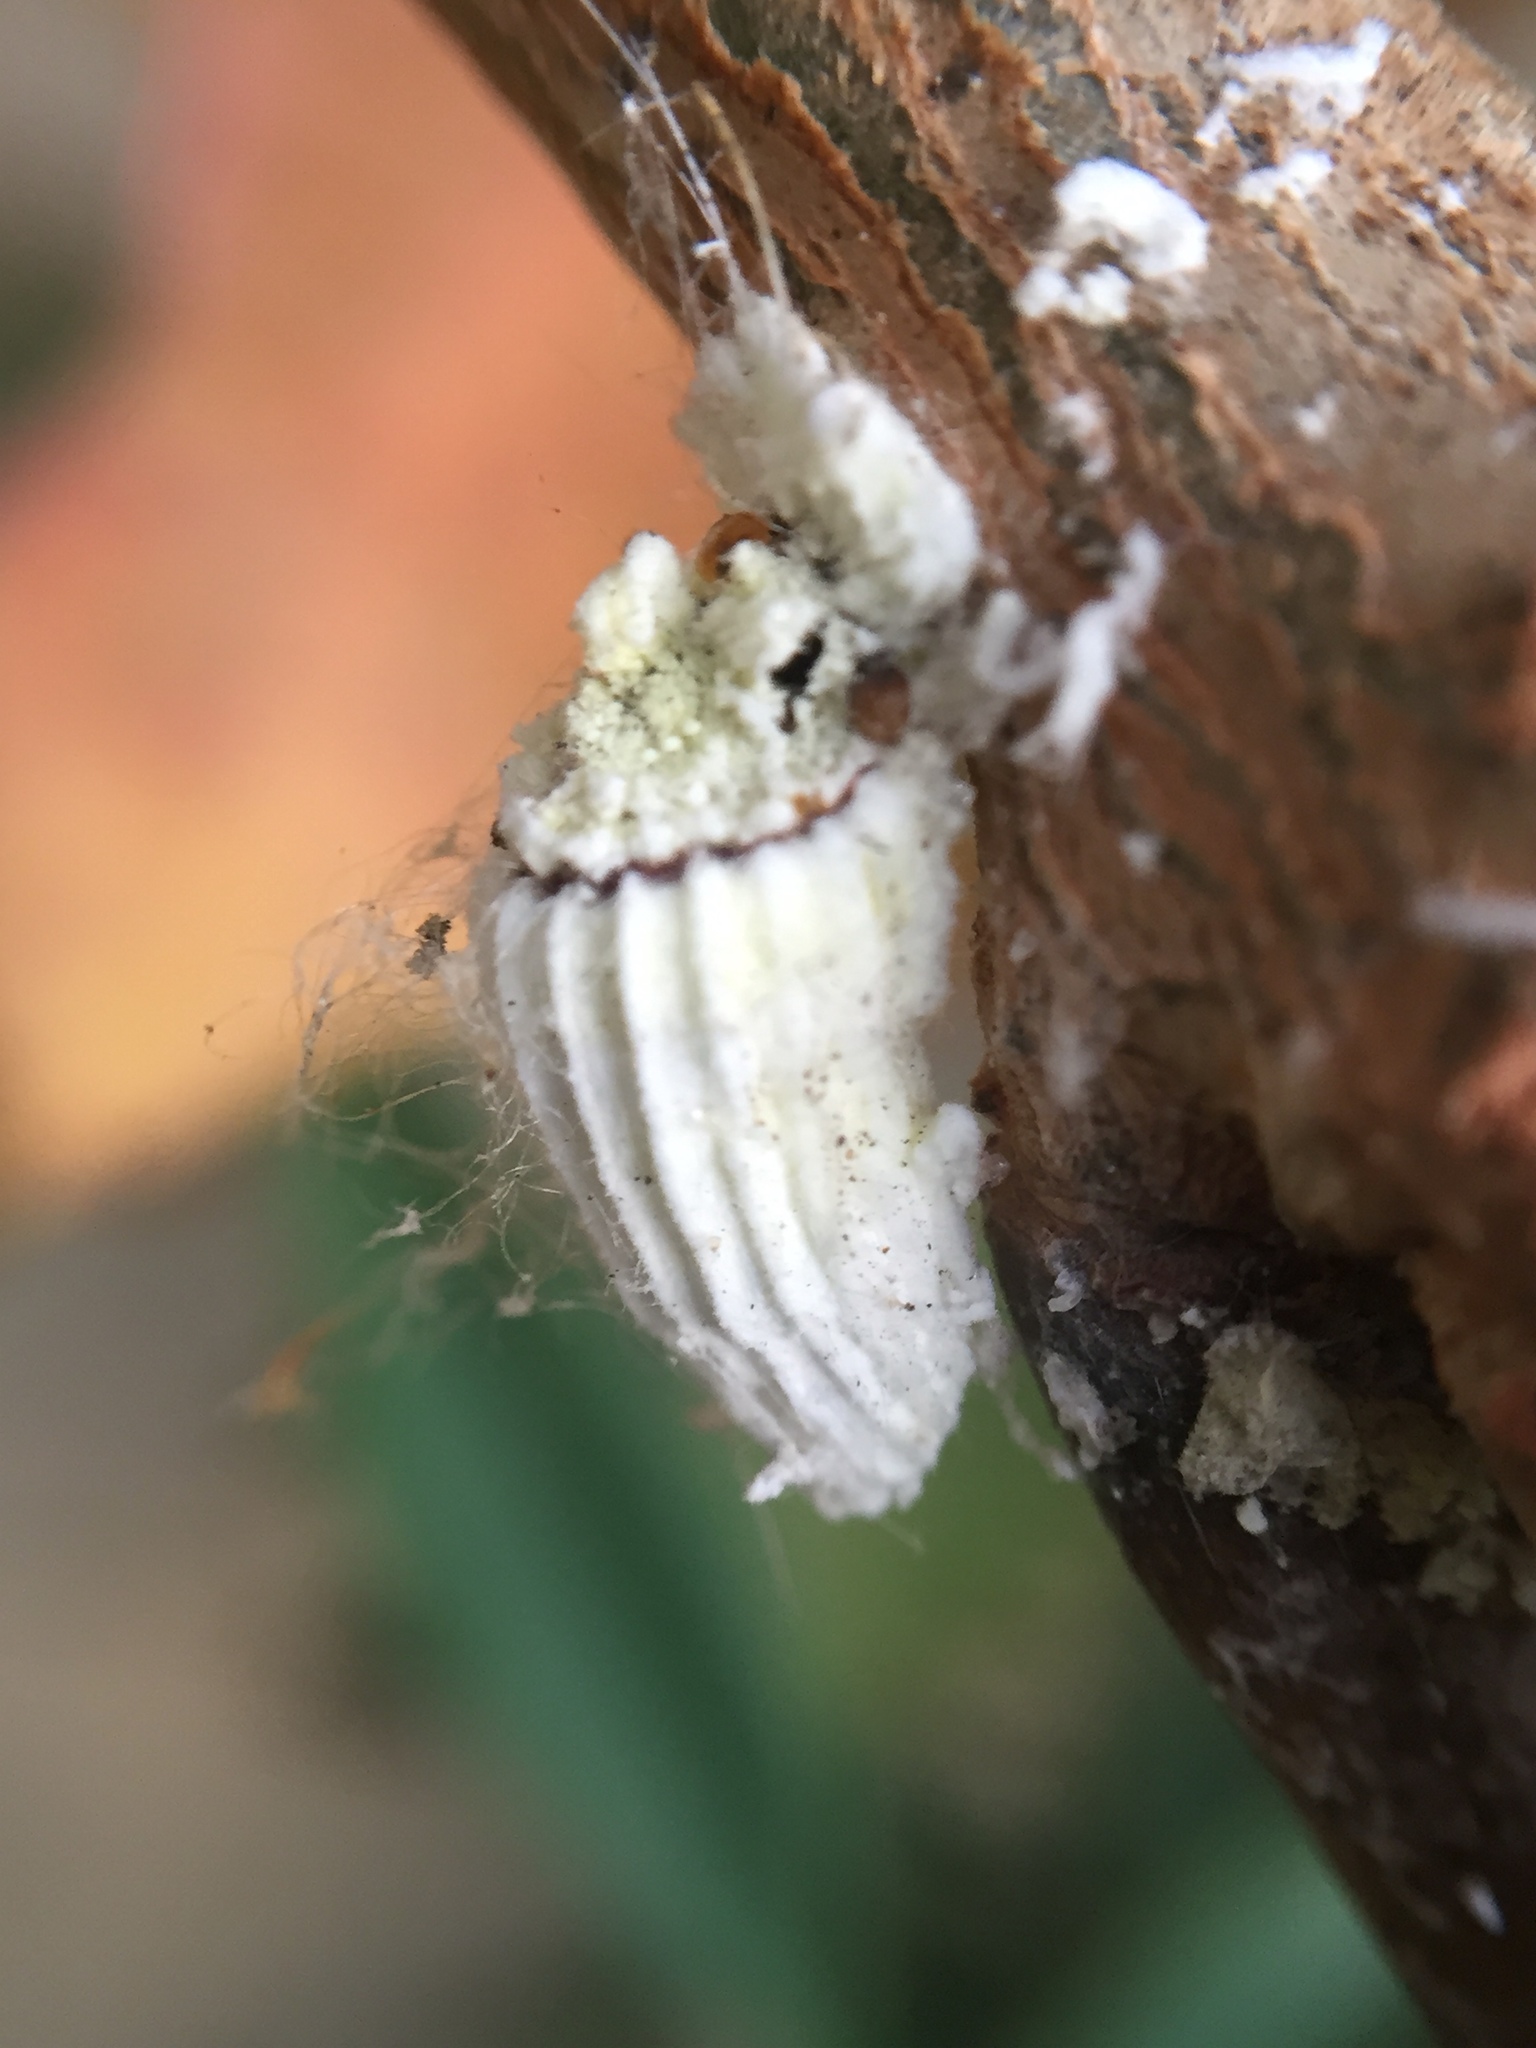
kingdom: Animalia
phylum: Arthropoda
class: Insecta
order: Hemiptera
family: Margarodidae
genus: Icerya
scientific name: Icerya purchasi
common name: Cottony cushion scale
